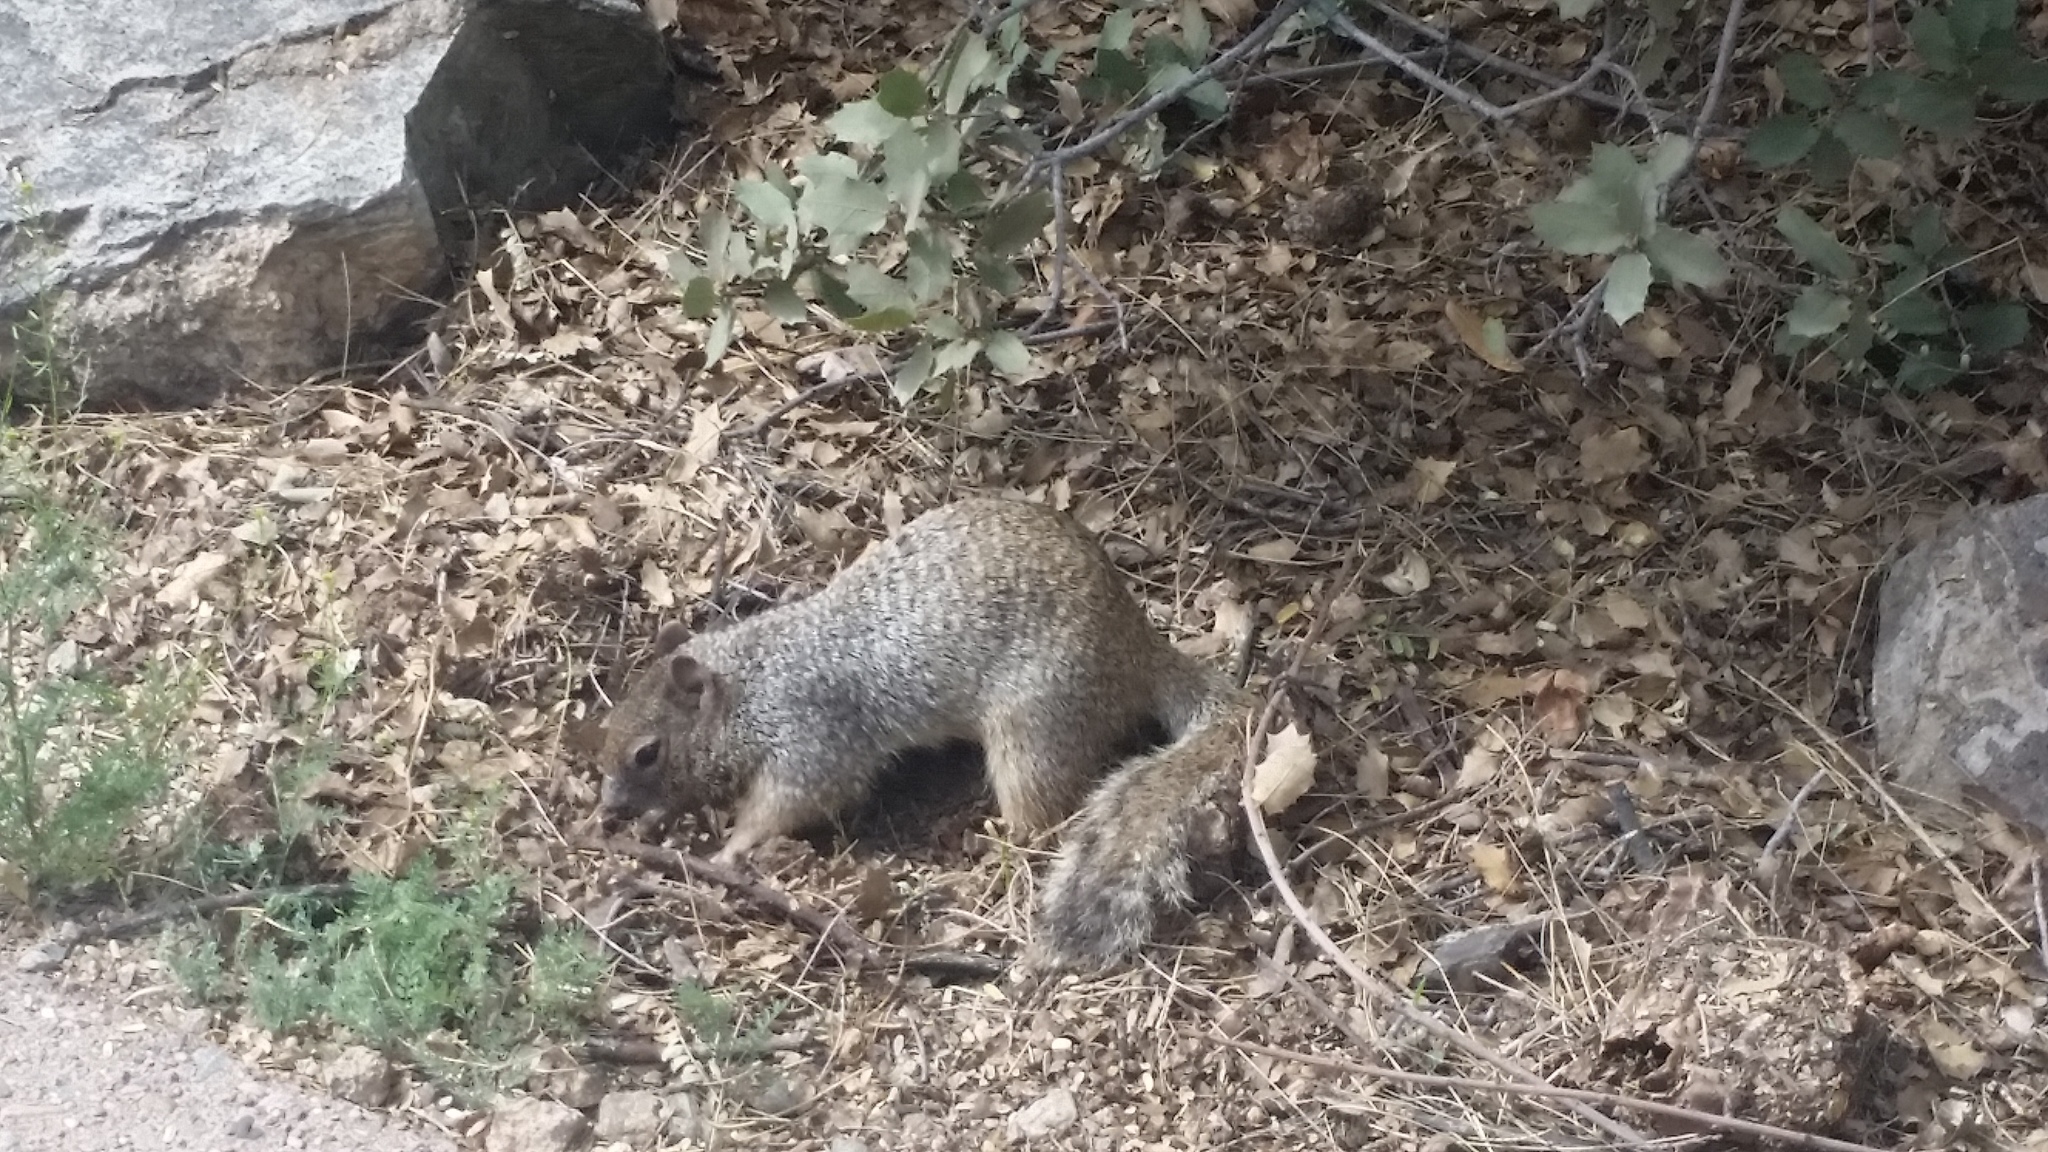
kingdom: Animalia
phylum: Chordata
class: Mammalia
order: Rodentia
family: Sciuridae
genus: Otospermophilus
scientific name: Otospermophilus variegatus
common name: Rock squirrel
